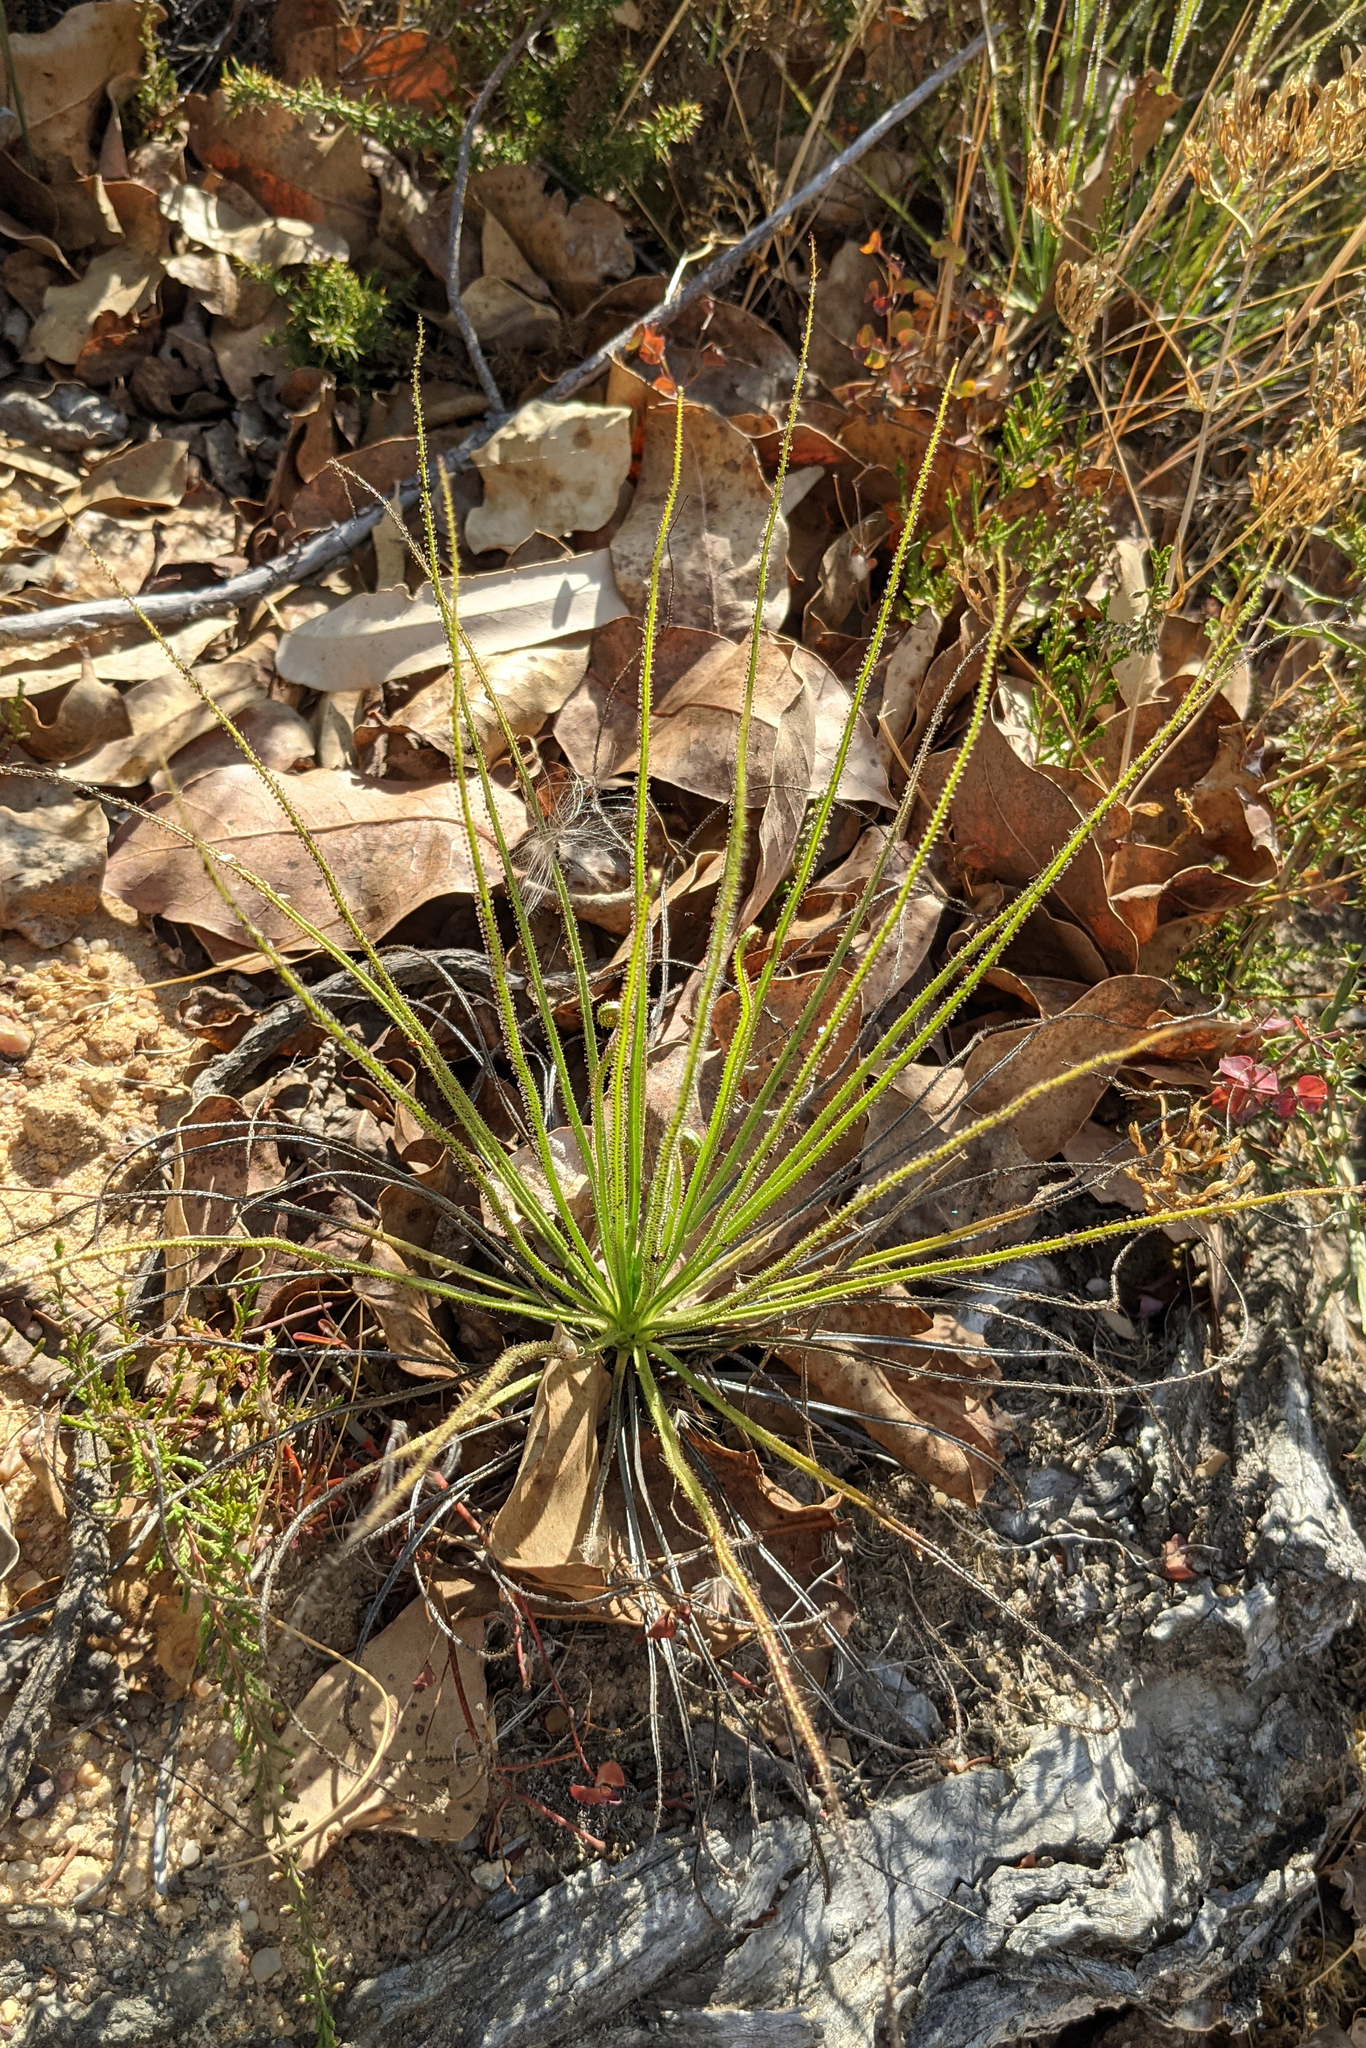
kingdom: Plantae
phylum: Tracheophyta
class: Magnoliopsida
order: Caryophyllales
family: Drosophyllaceae
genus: Drosophyllum
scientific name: Drosophyllum lusitanicum
